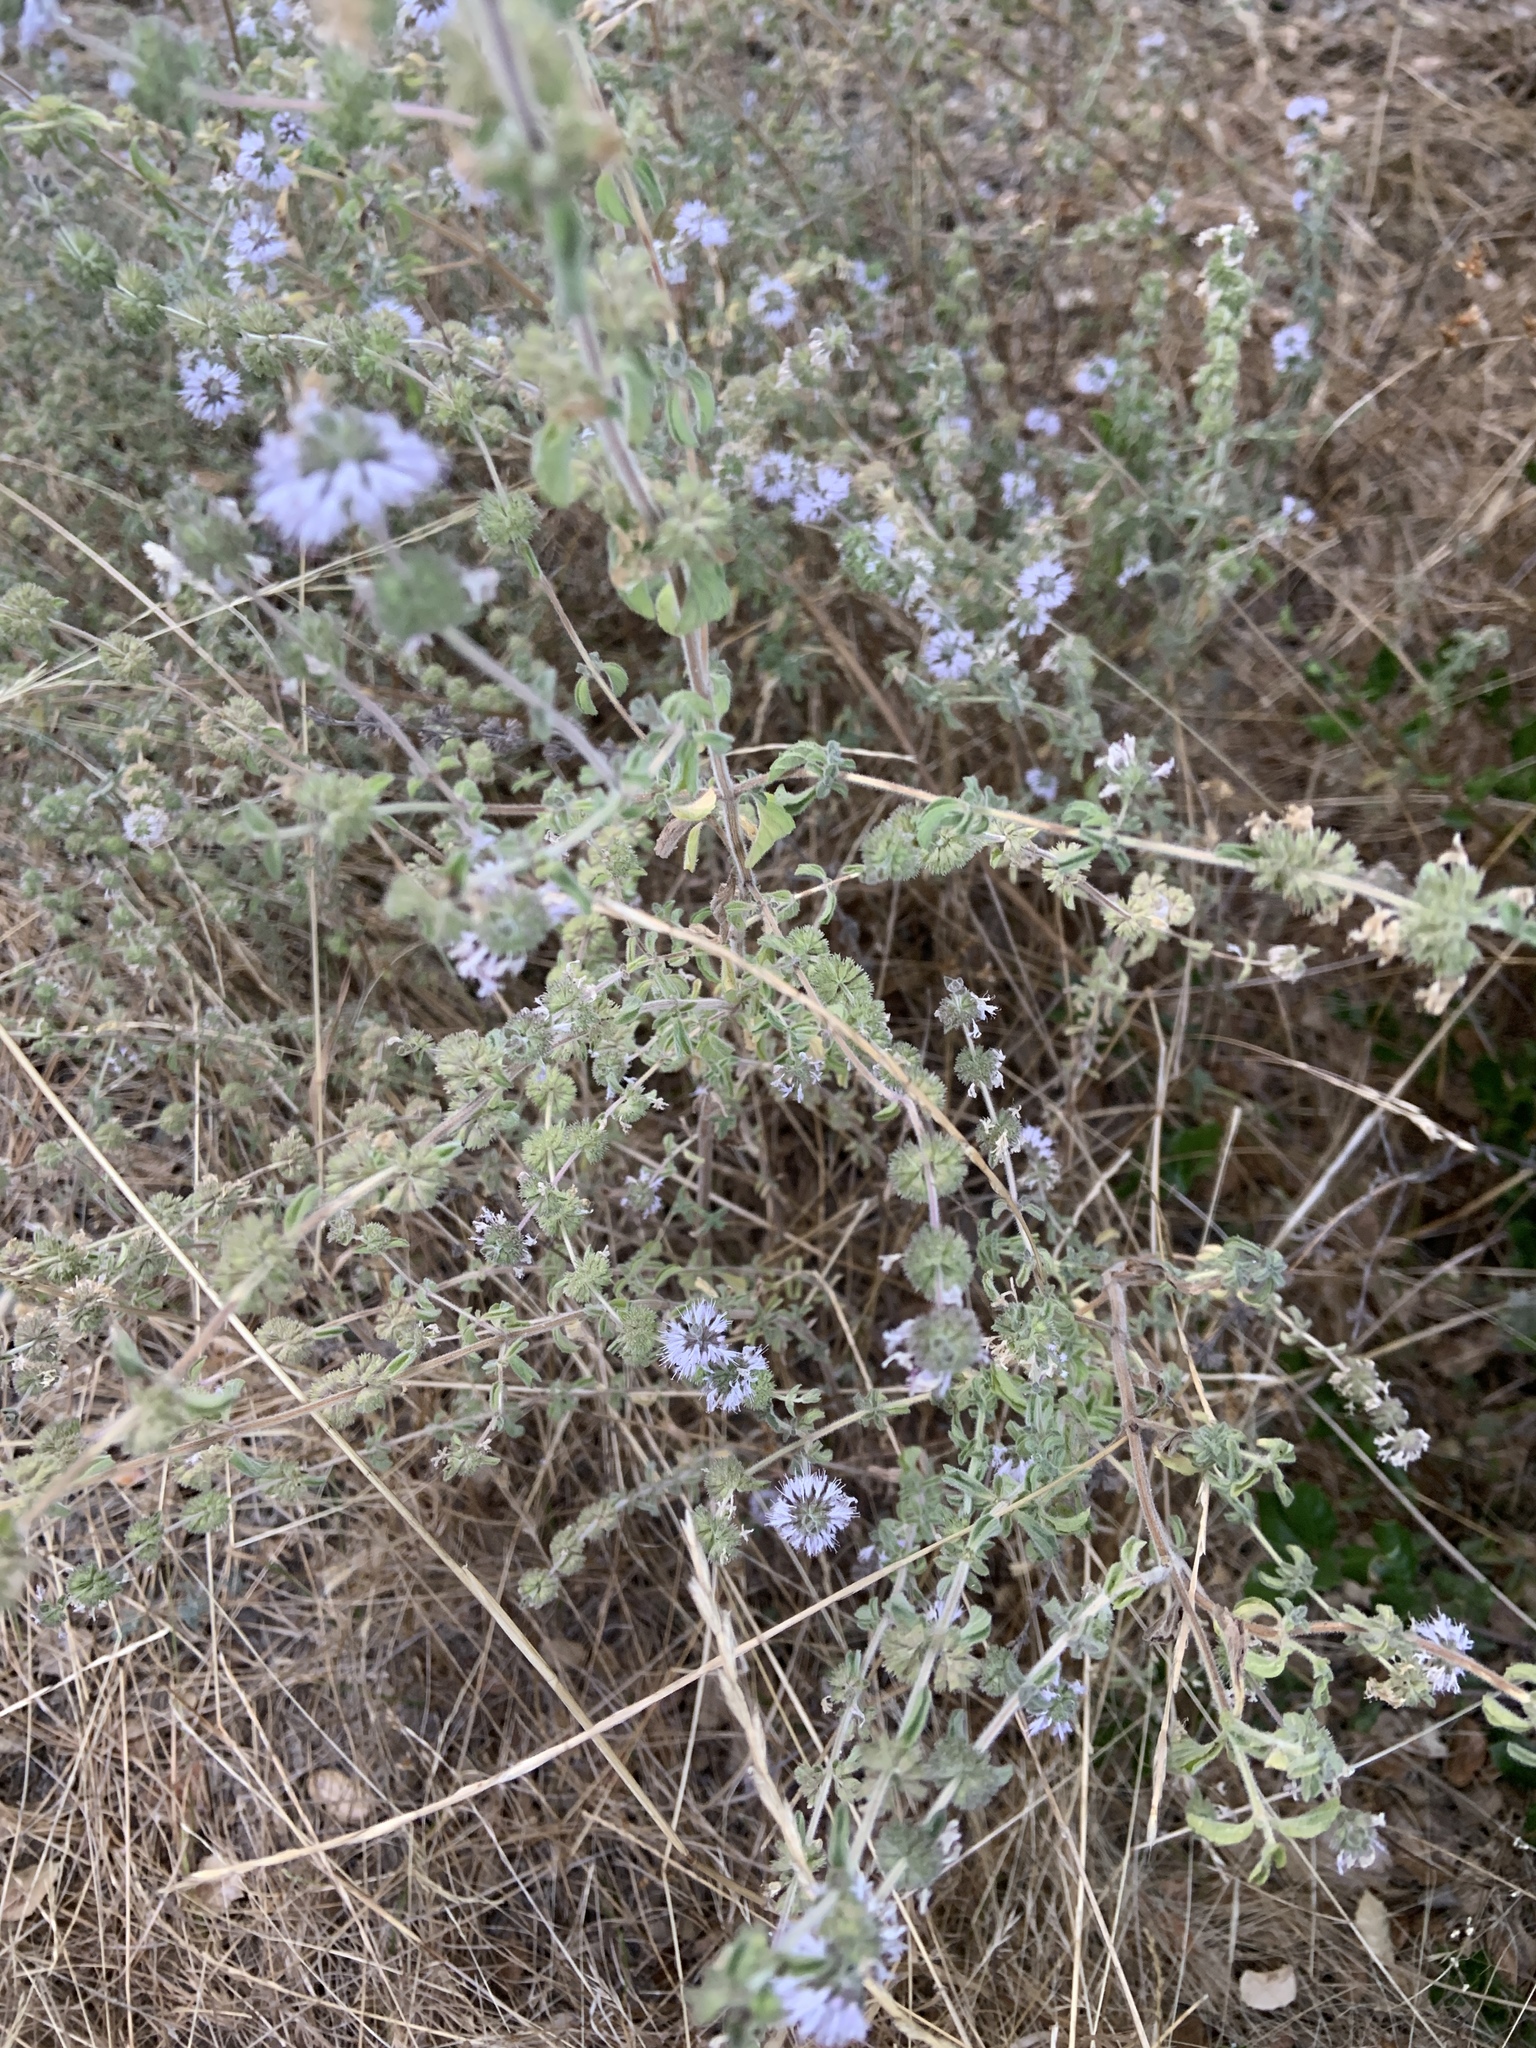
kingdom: Plantae
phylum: Tracheophyta
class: Magnoliopsida
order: Lamiales
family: Lamiaceae
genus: Mentha
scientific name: Mentha pulegium
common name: Pennyroyal
